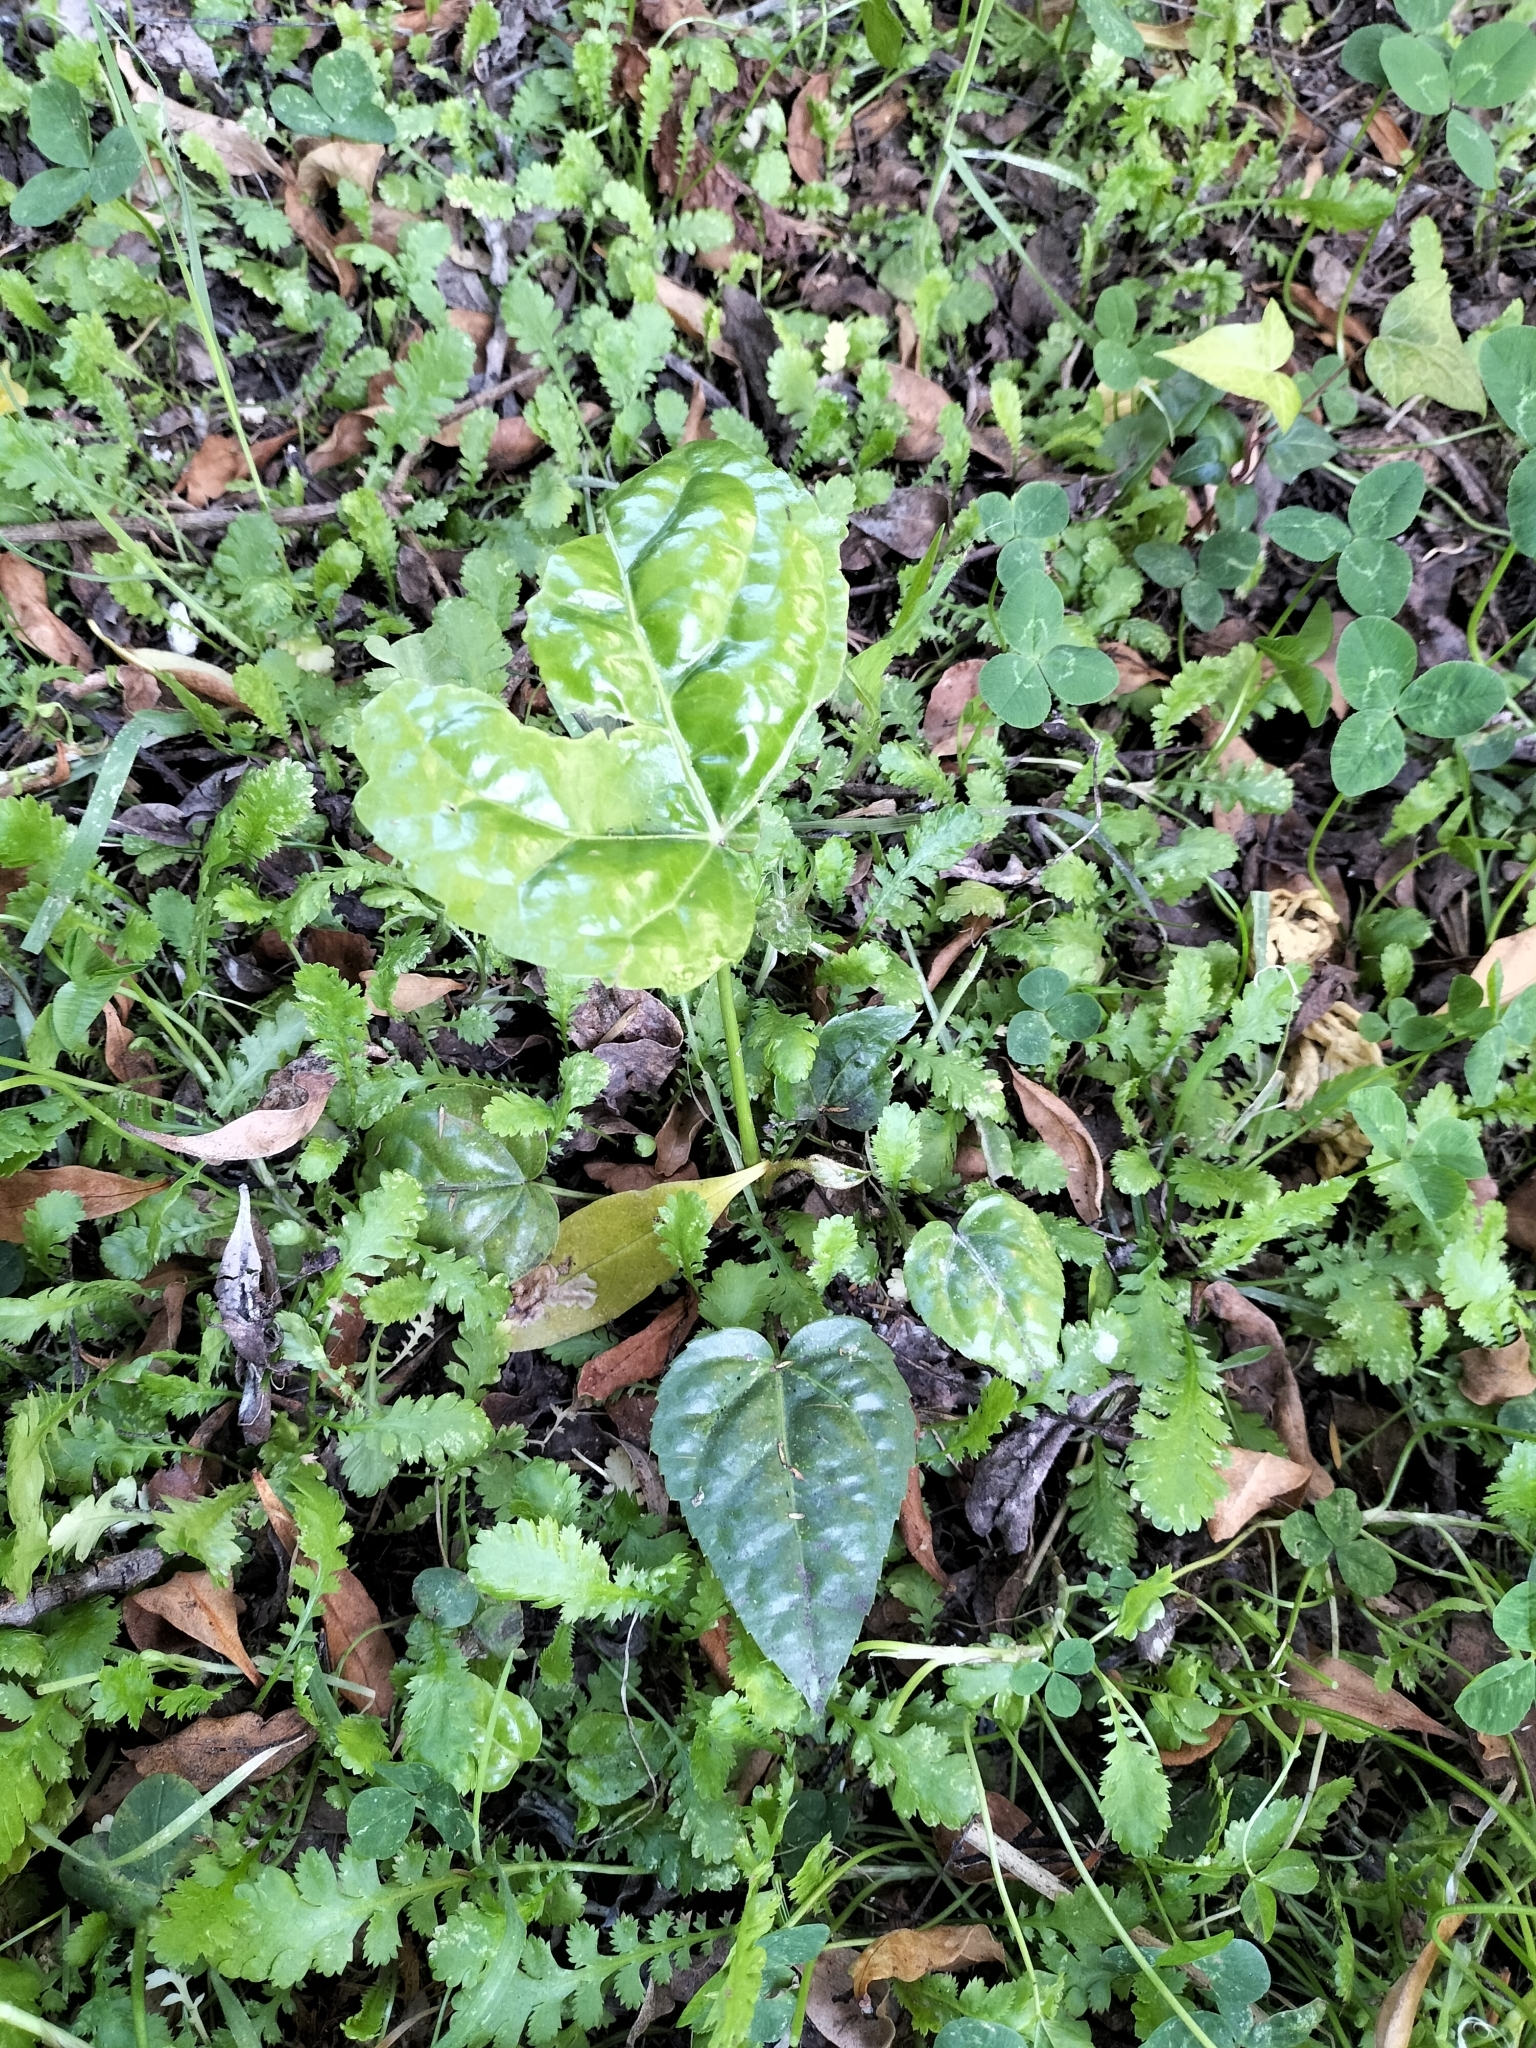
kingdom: Plantae
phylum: Tracheophyta
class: Magnoliopsida
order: Apiales
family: Araliaceae
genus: Fatsia
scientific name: Fatsia japonica
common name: Fatsia
